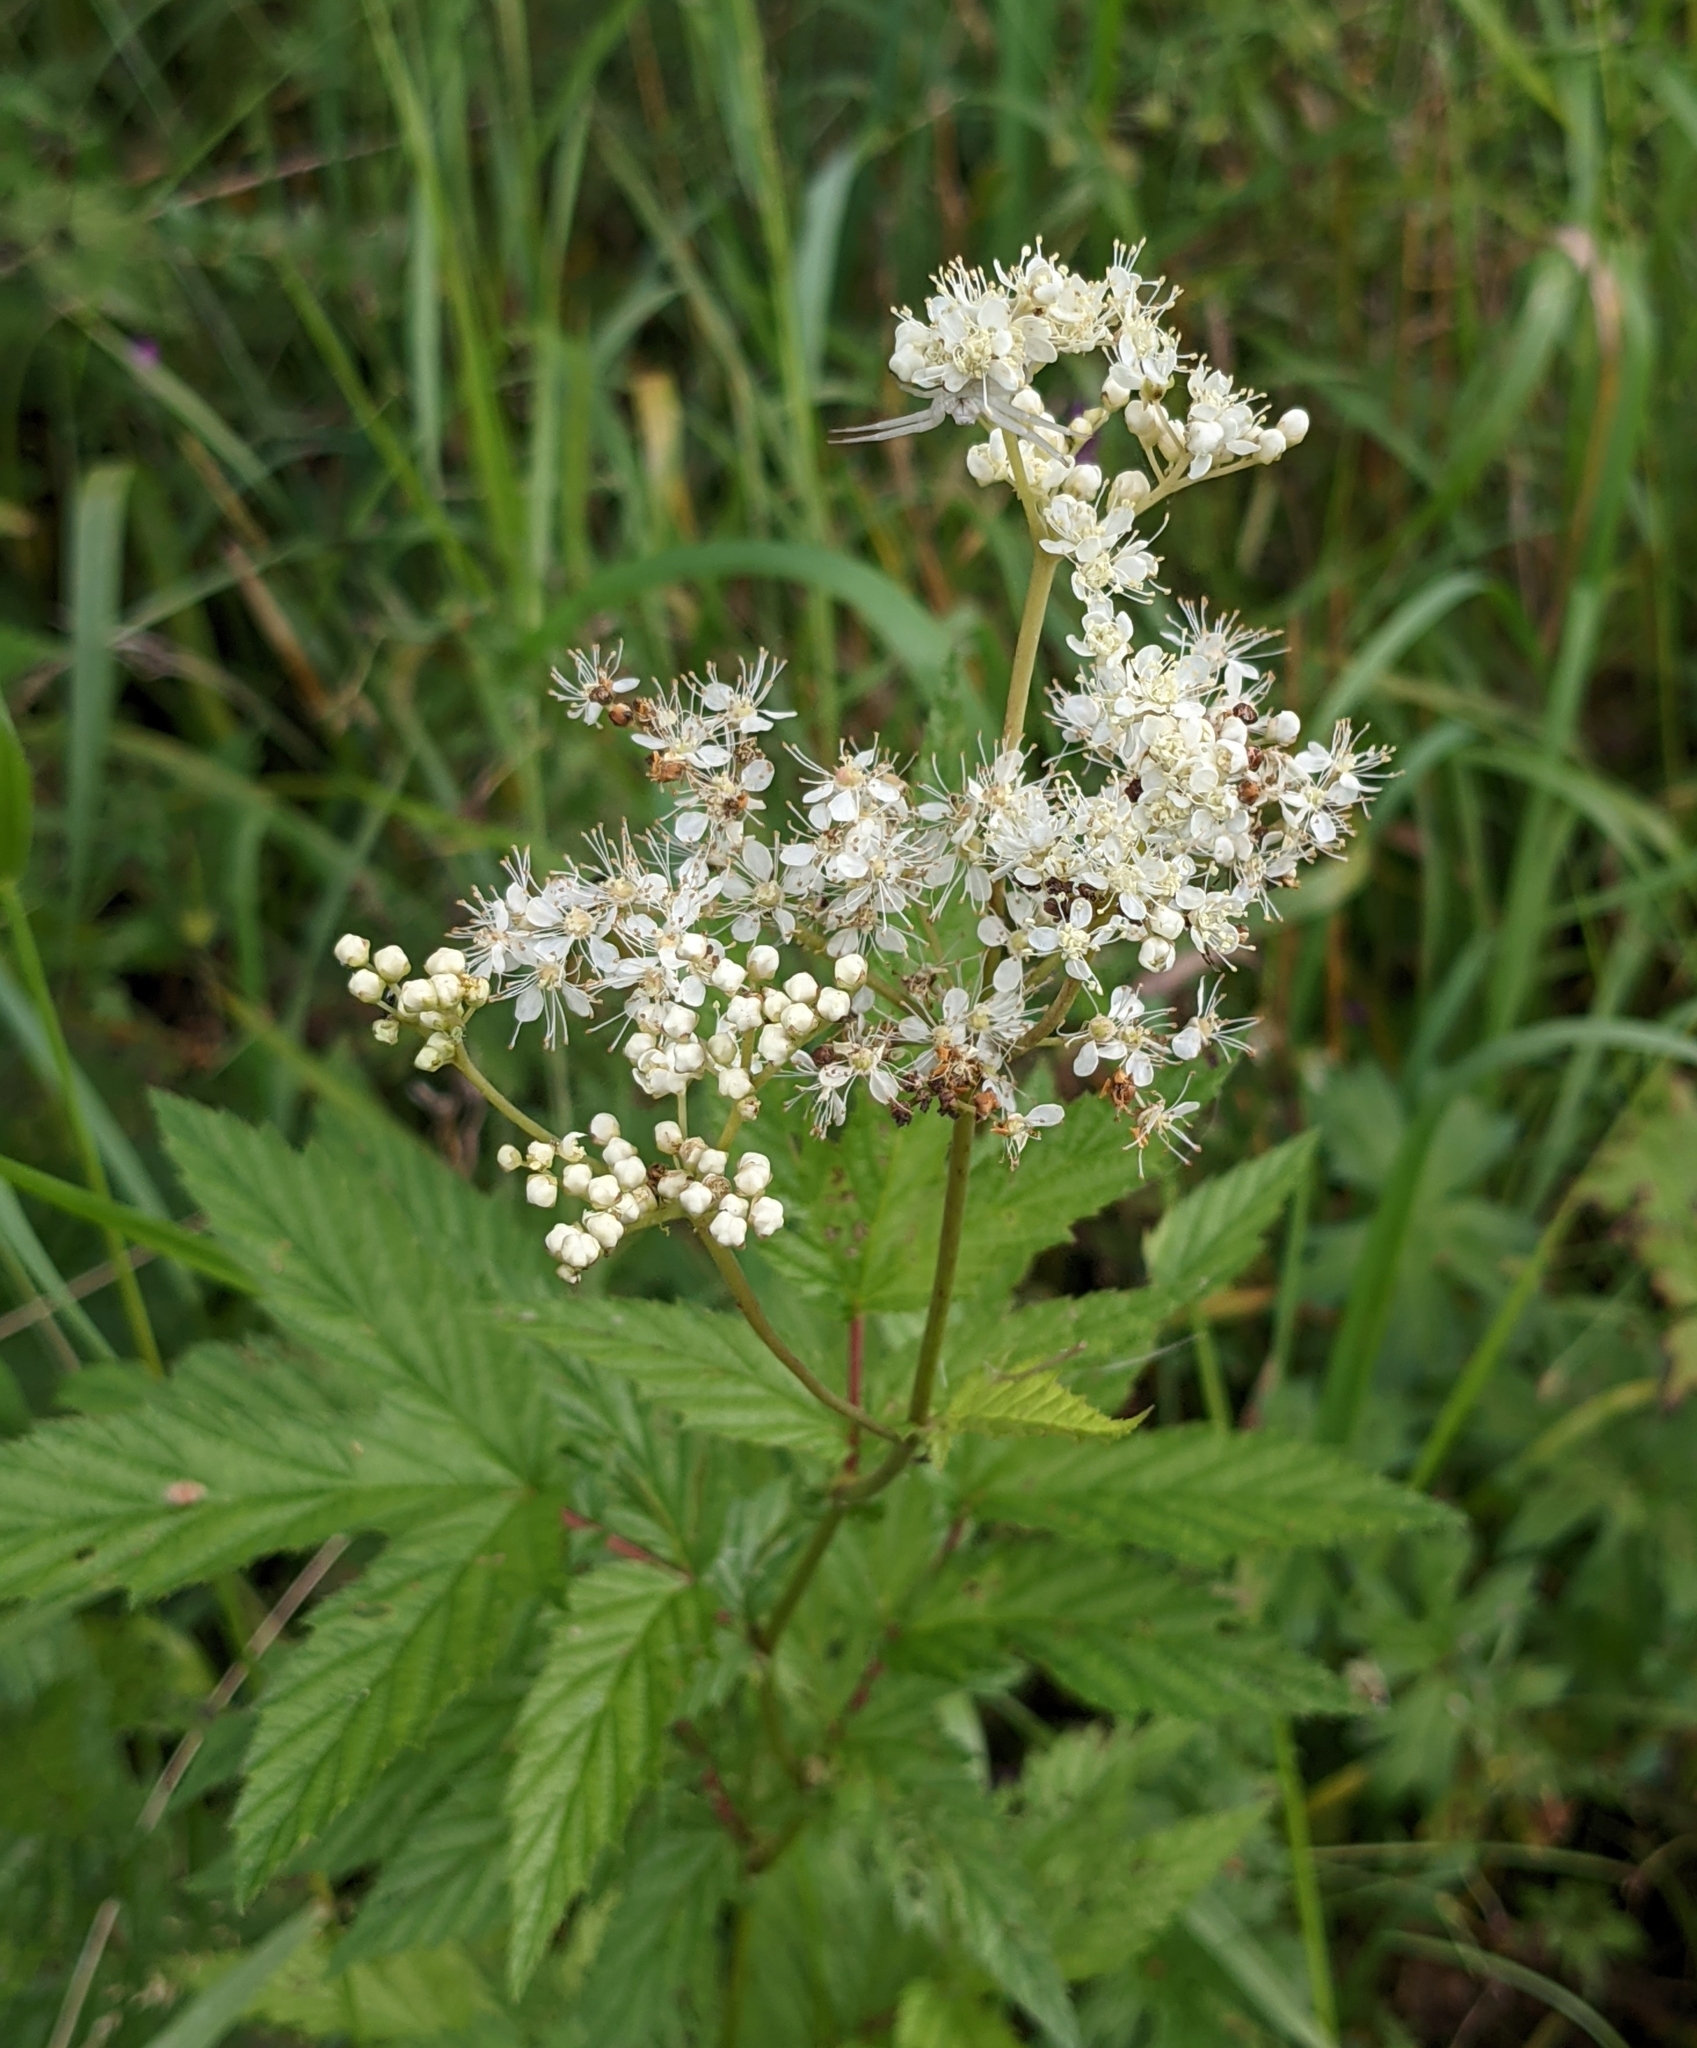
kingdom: Plantae
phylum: Tracheophyta
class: Magnoliopsida
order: Rosales
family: Rosaceae
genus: Filipendula
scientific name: Filipendula ulmaria
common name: Meadowsweet
